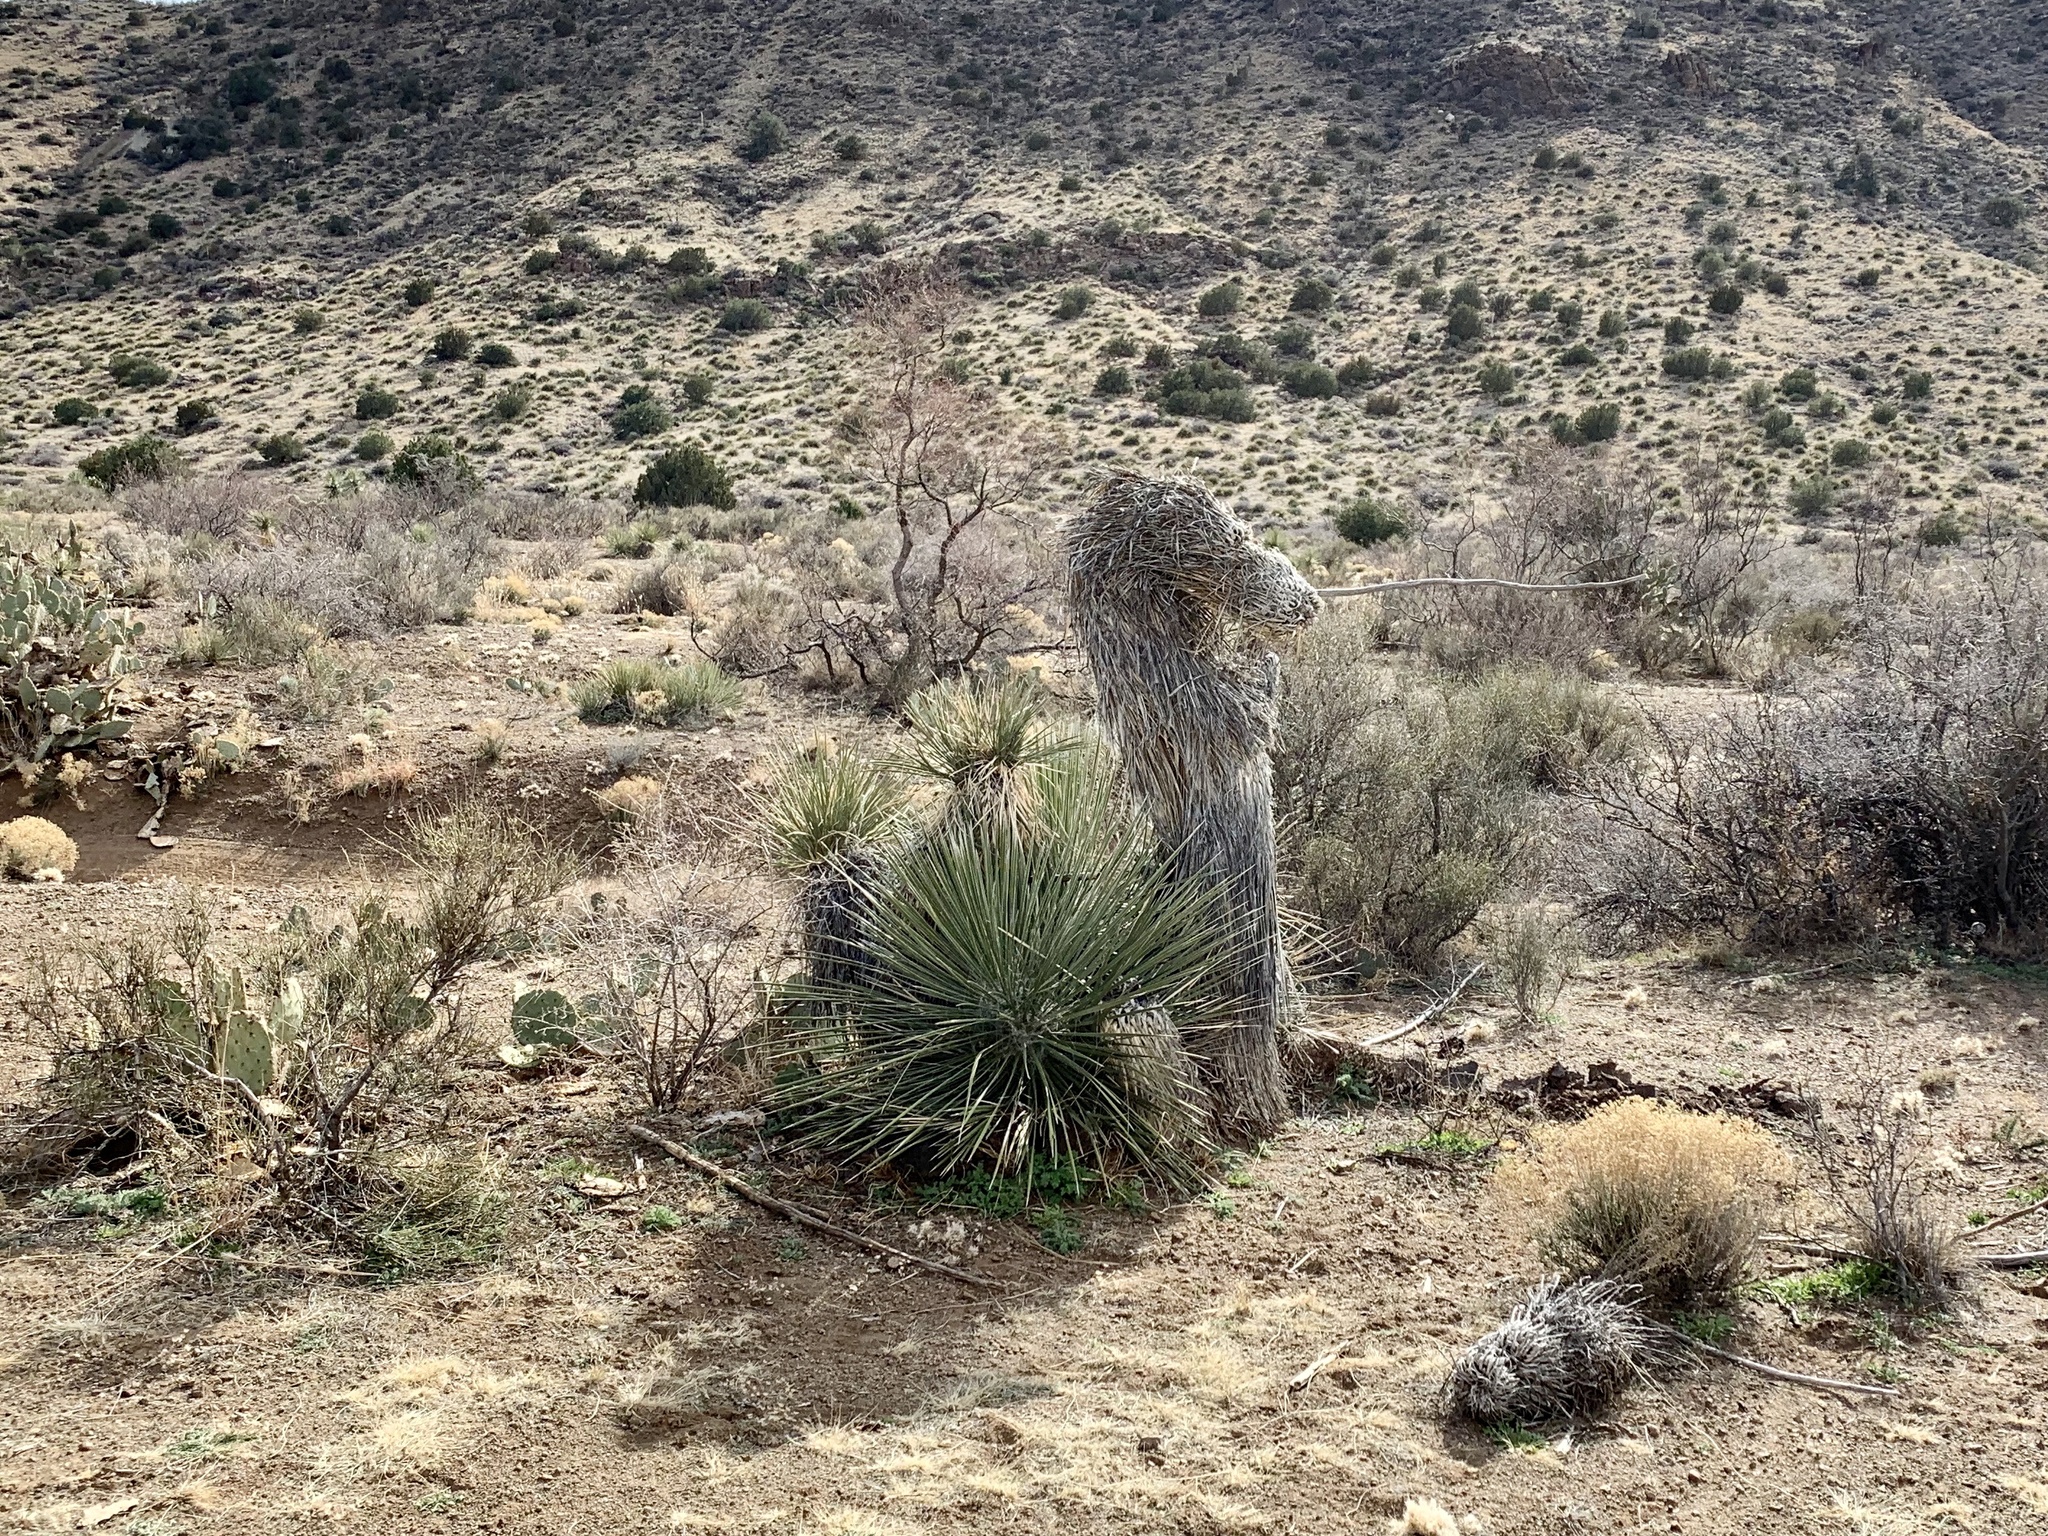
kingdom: Plantae
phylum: Tracheophyta
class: Liliopsida
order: Asparagales
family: Asparagaceae
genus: Yucca
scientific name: Yucca elata
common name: Palmella
